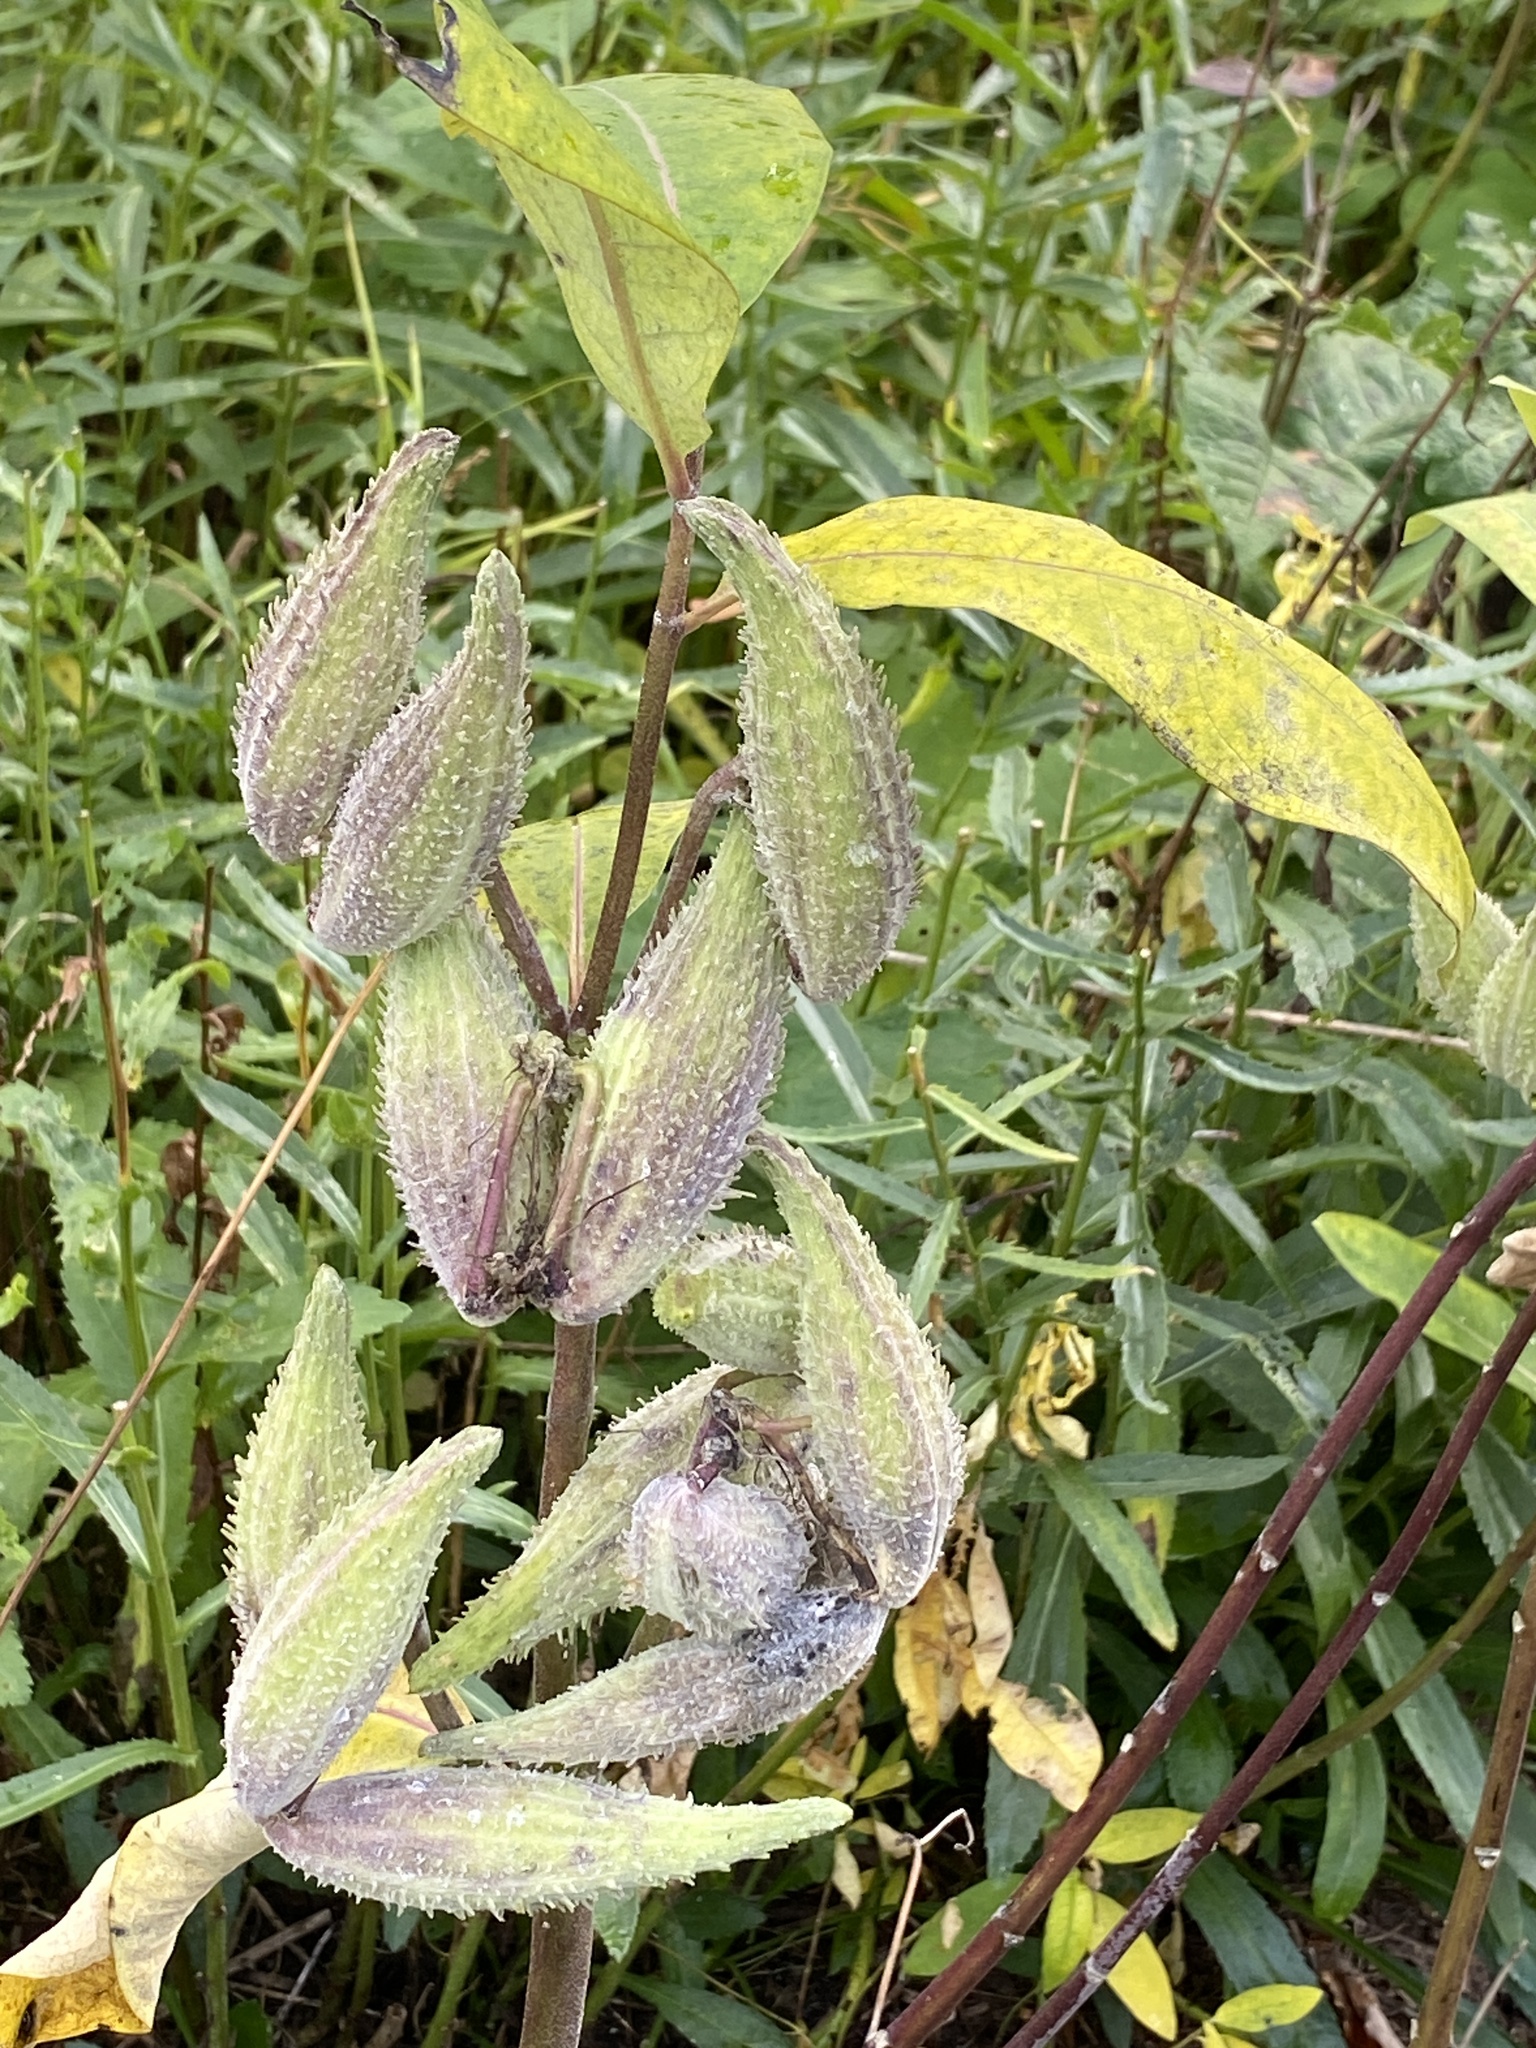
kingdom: Plantae
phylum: Tracheophyta
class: Magnoliopsida
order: Gentianales
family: Apocynaceae
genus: Asclepias
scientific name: Asclepias syriaca
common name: Common milkweed
